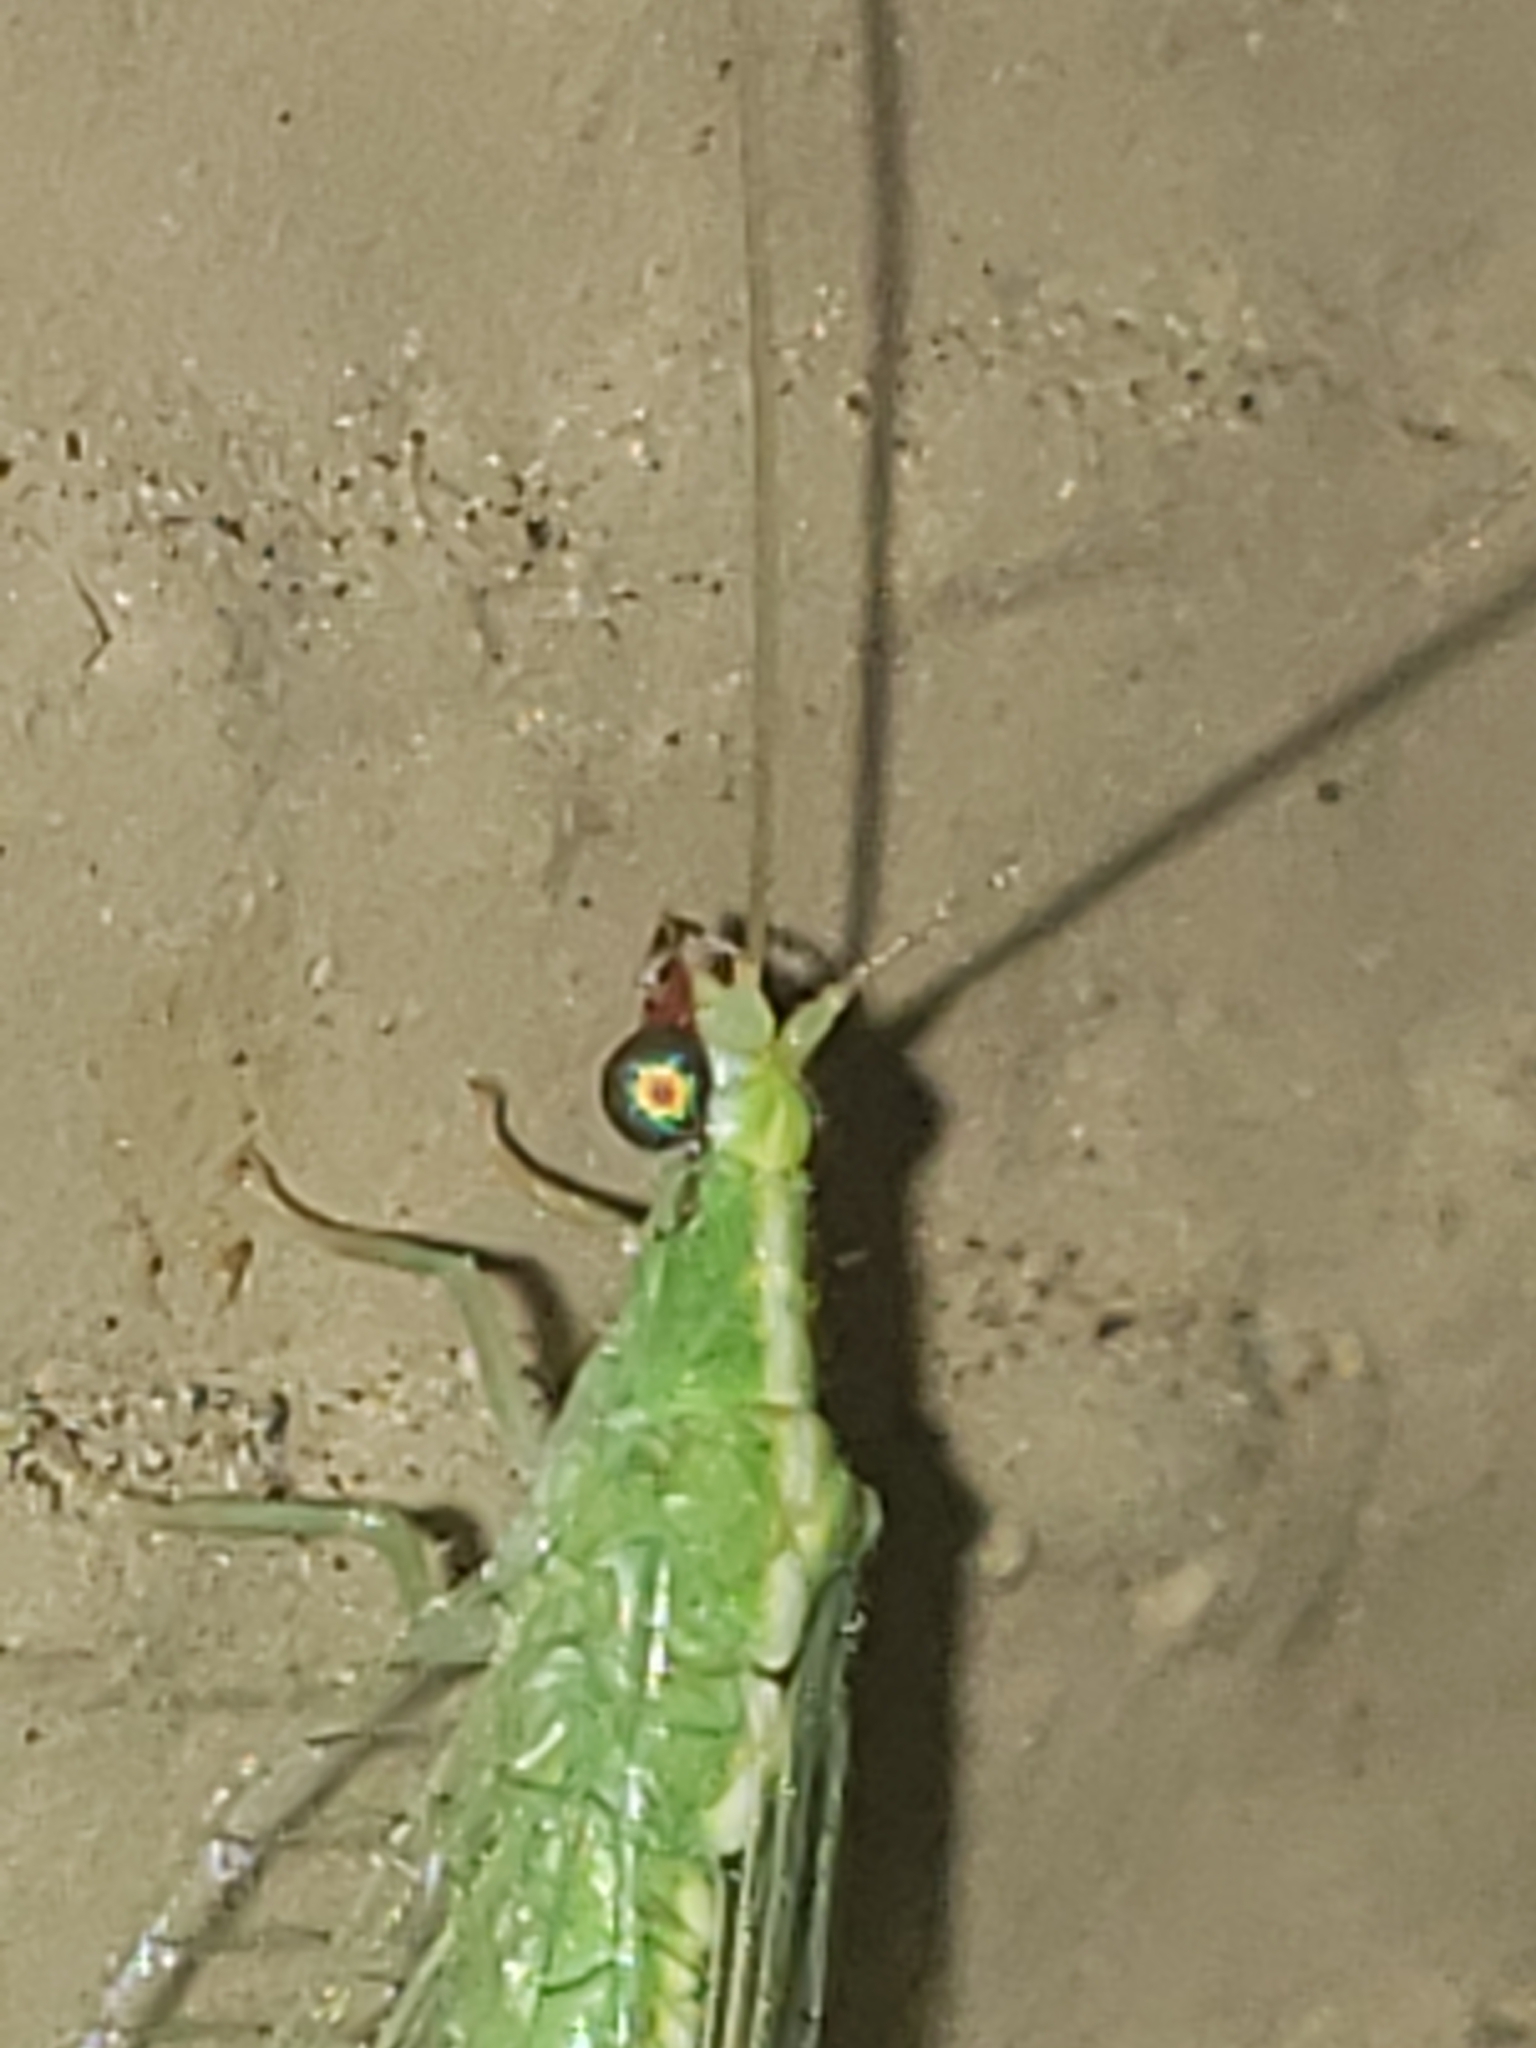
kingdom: Animalia
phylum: Arthropoda
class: Insecta
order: Neuroptera
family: Chrysopidae
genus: Chrysoperla
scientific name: Chrysoperla rufilabris
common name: Red-lipped green lacewing
